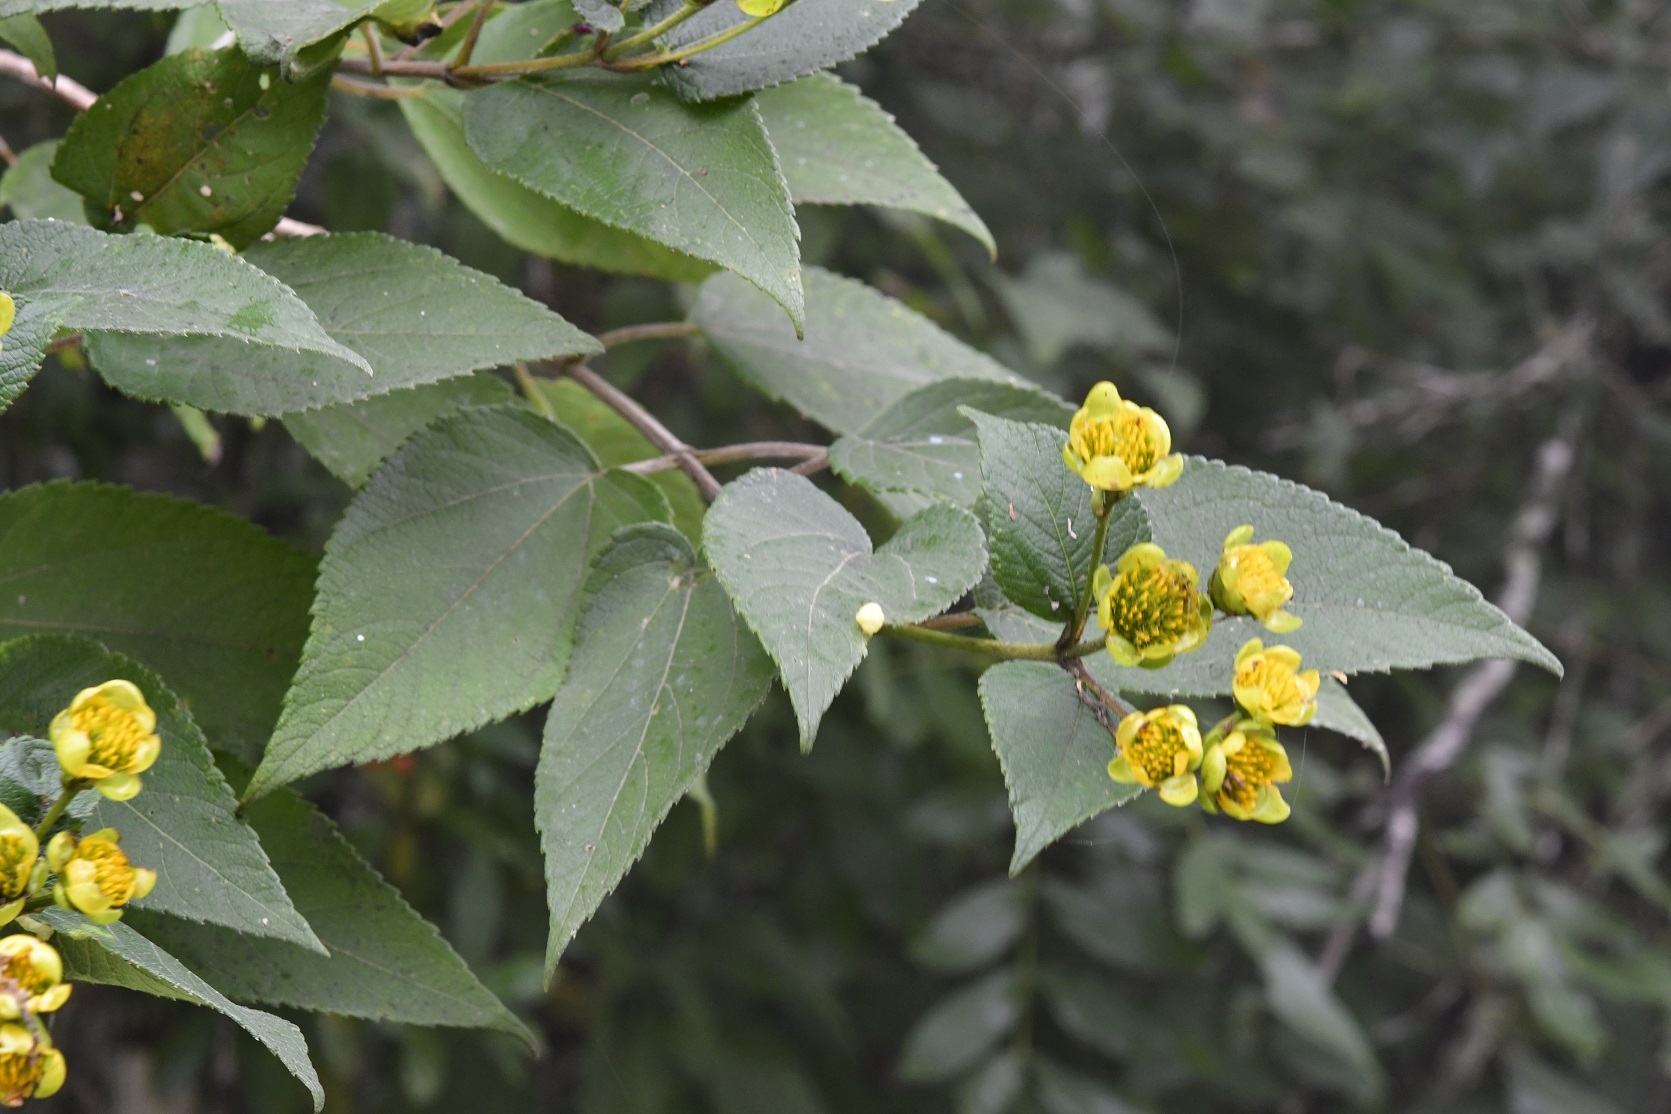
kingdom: Plantae
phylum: Tracheophyta
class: Magnoliopsida
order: Asterales
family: Asteraceae
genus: Lasianthaea
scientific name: Lasianthaea fruticosa
